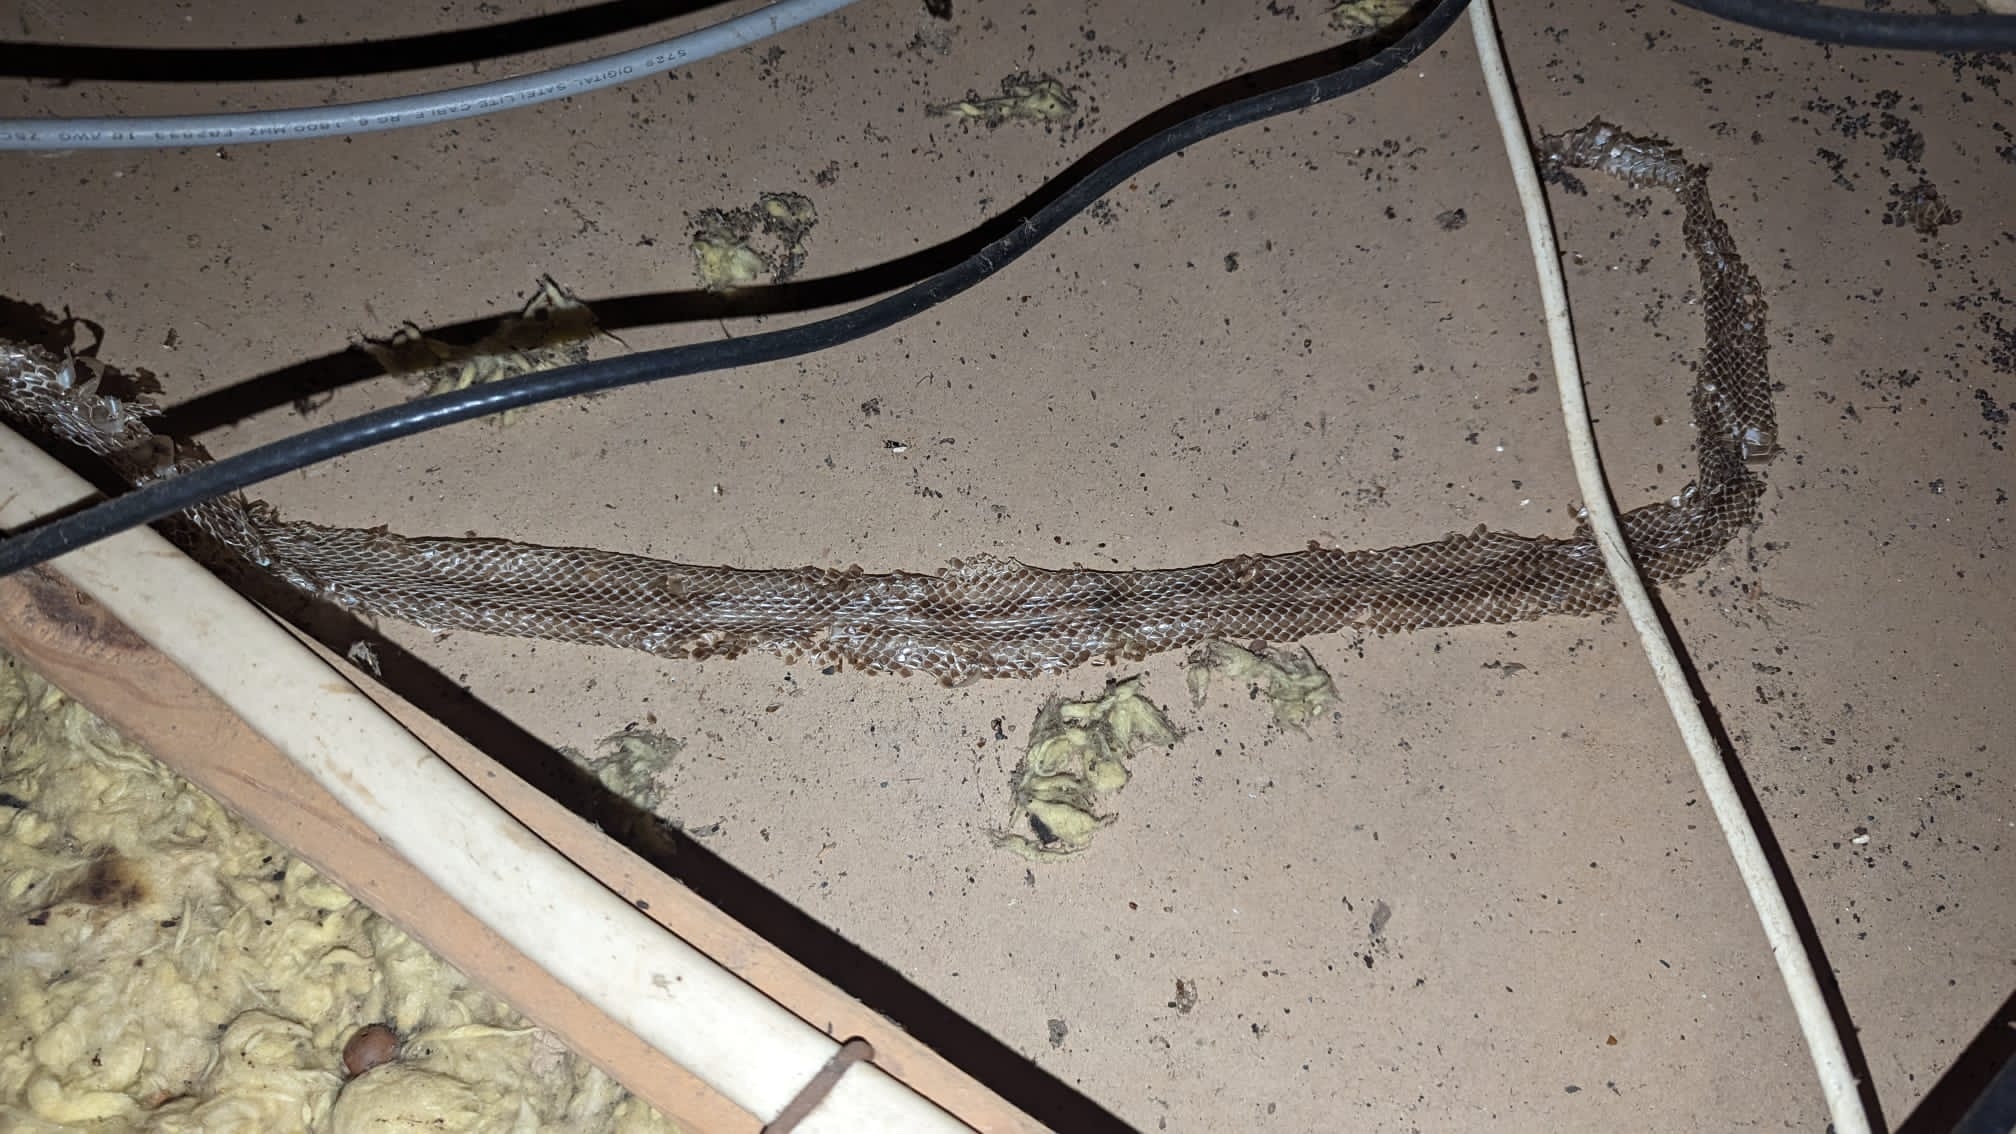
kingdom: Animalia
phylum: Chordata
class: Squamata
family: Colubridae
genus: Pantherophis
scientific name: Pantherophis alleghaniensis
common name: Eastern rat snake
